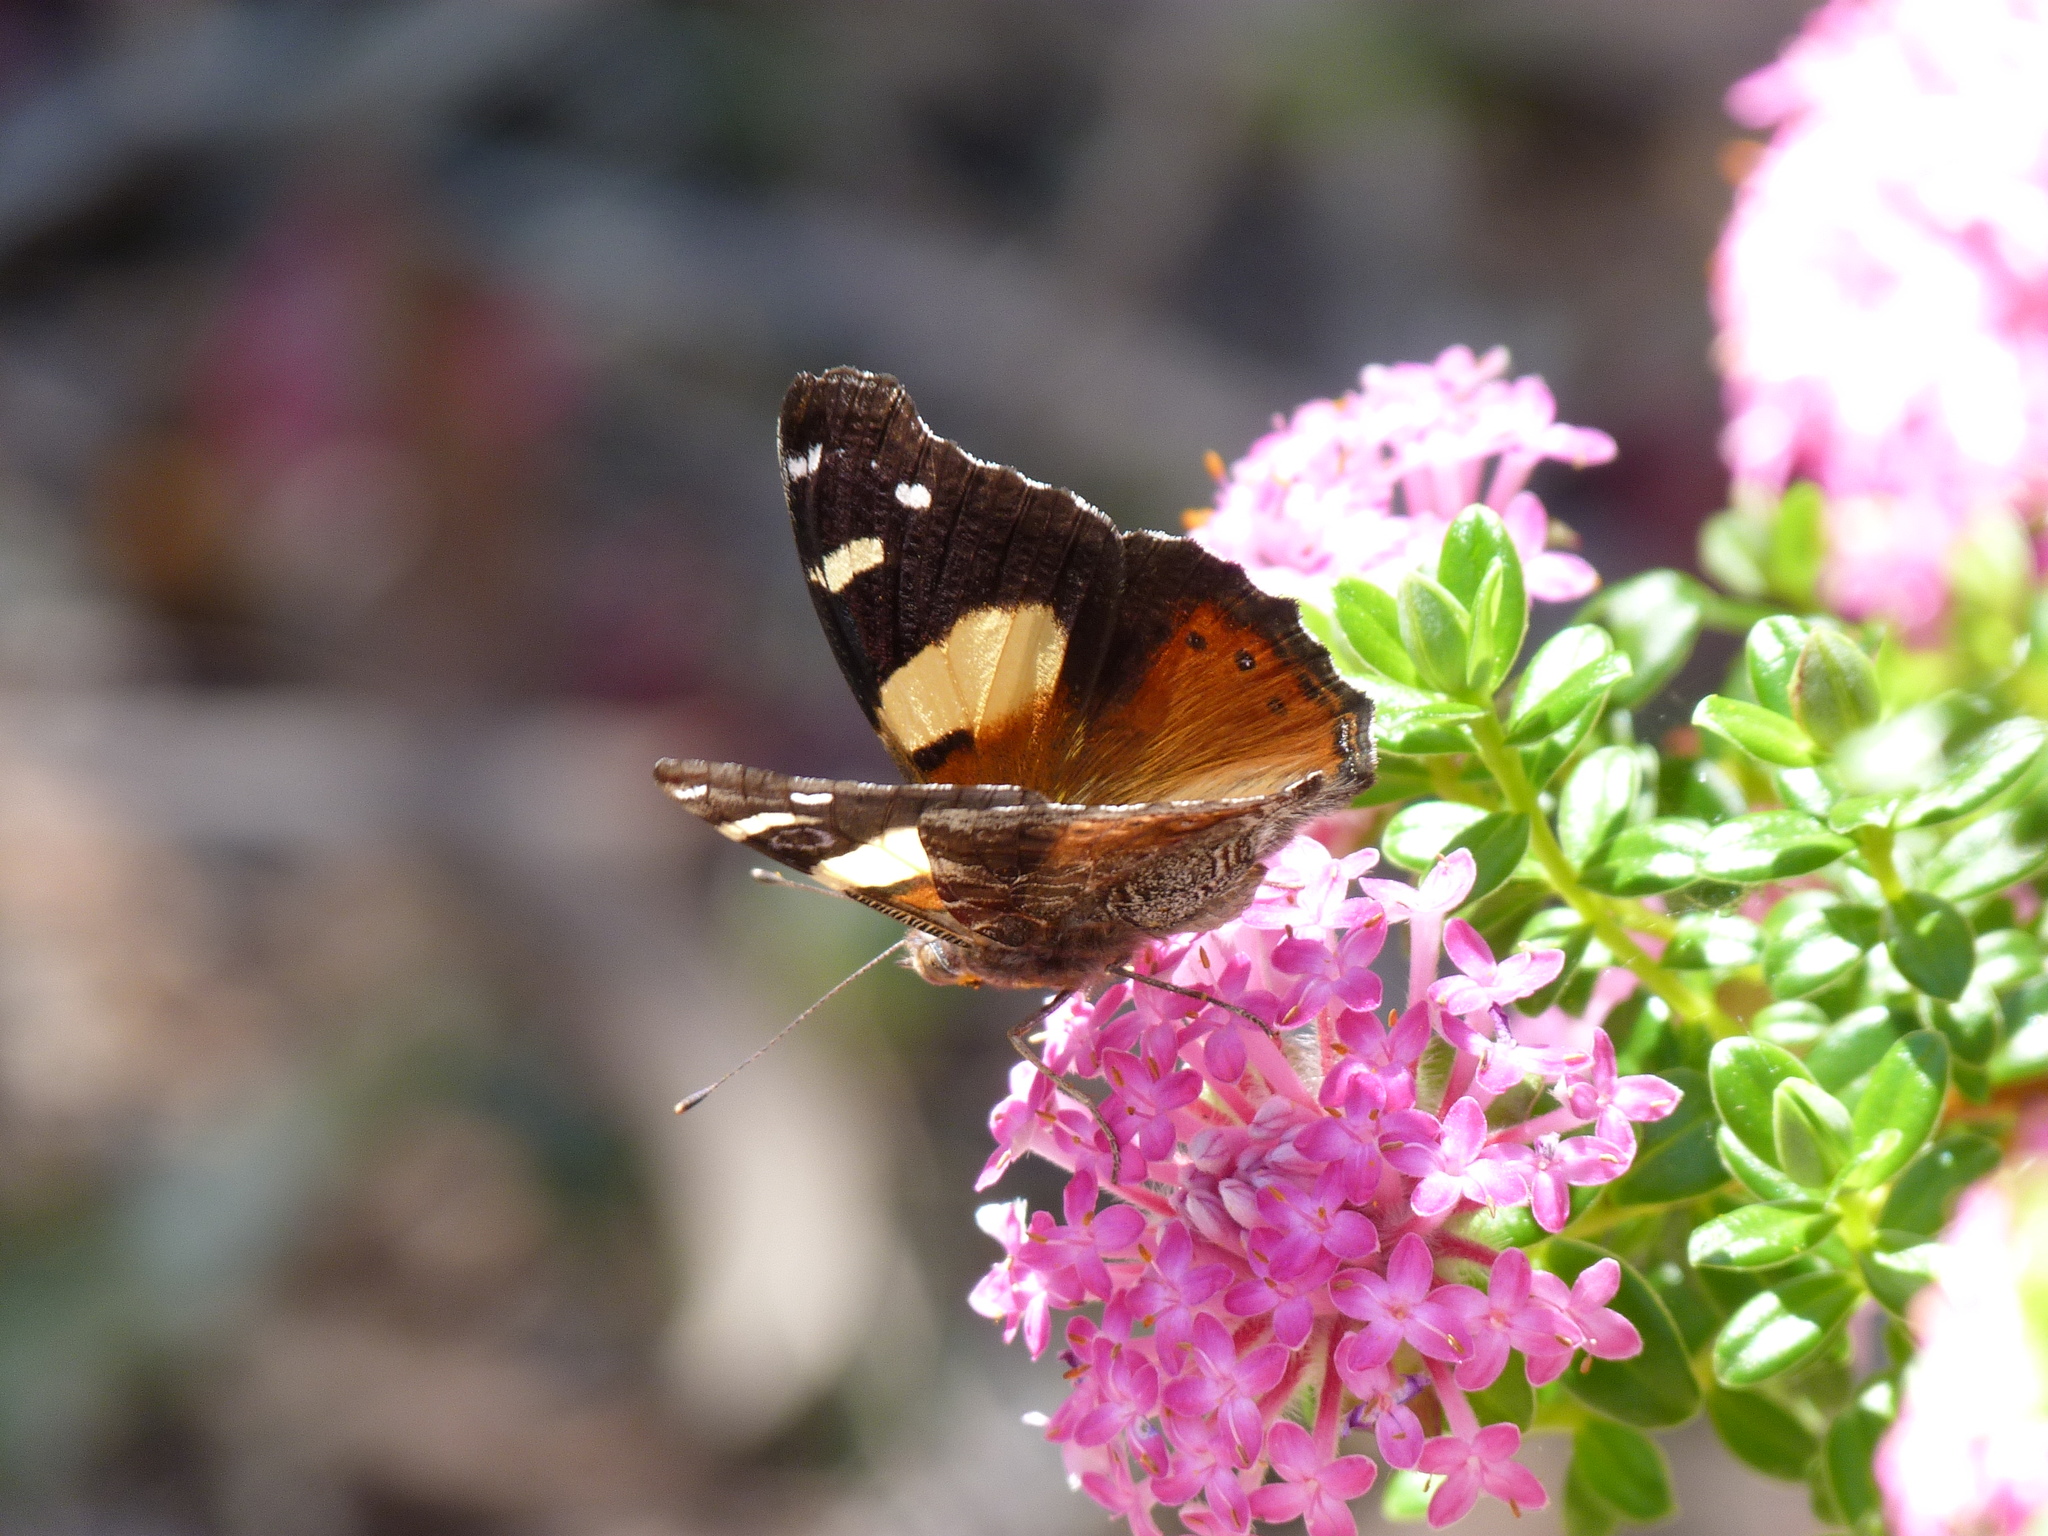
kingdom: Animalia
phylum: Arthropoda
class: Insecta
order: Lepidoptera
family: Nymphalidae
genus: Vanessa
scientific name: Vanessa itea
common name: Yellow admiral
